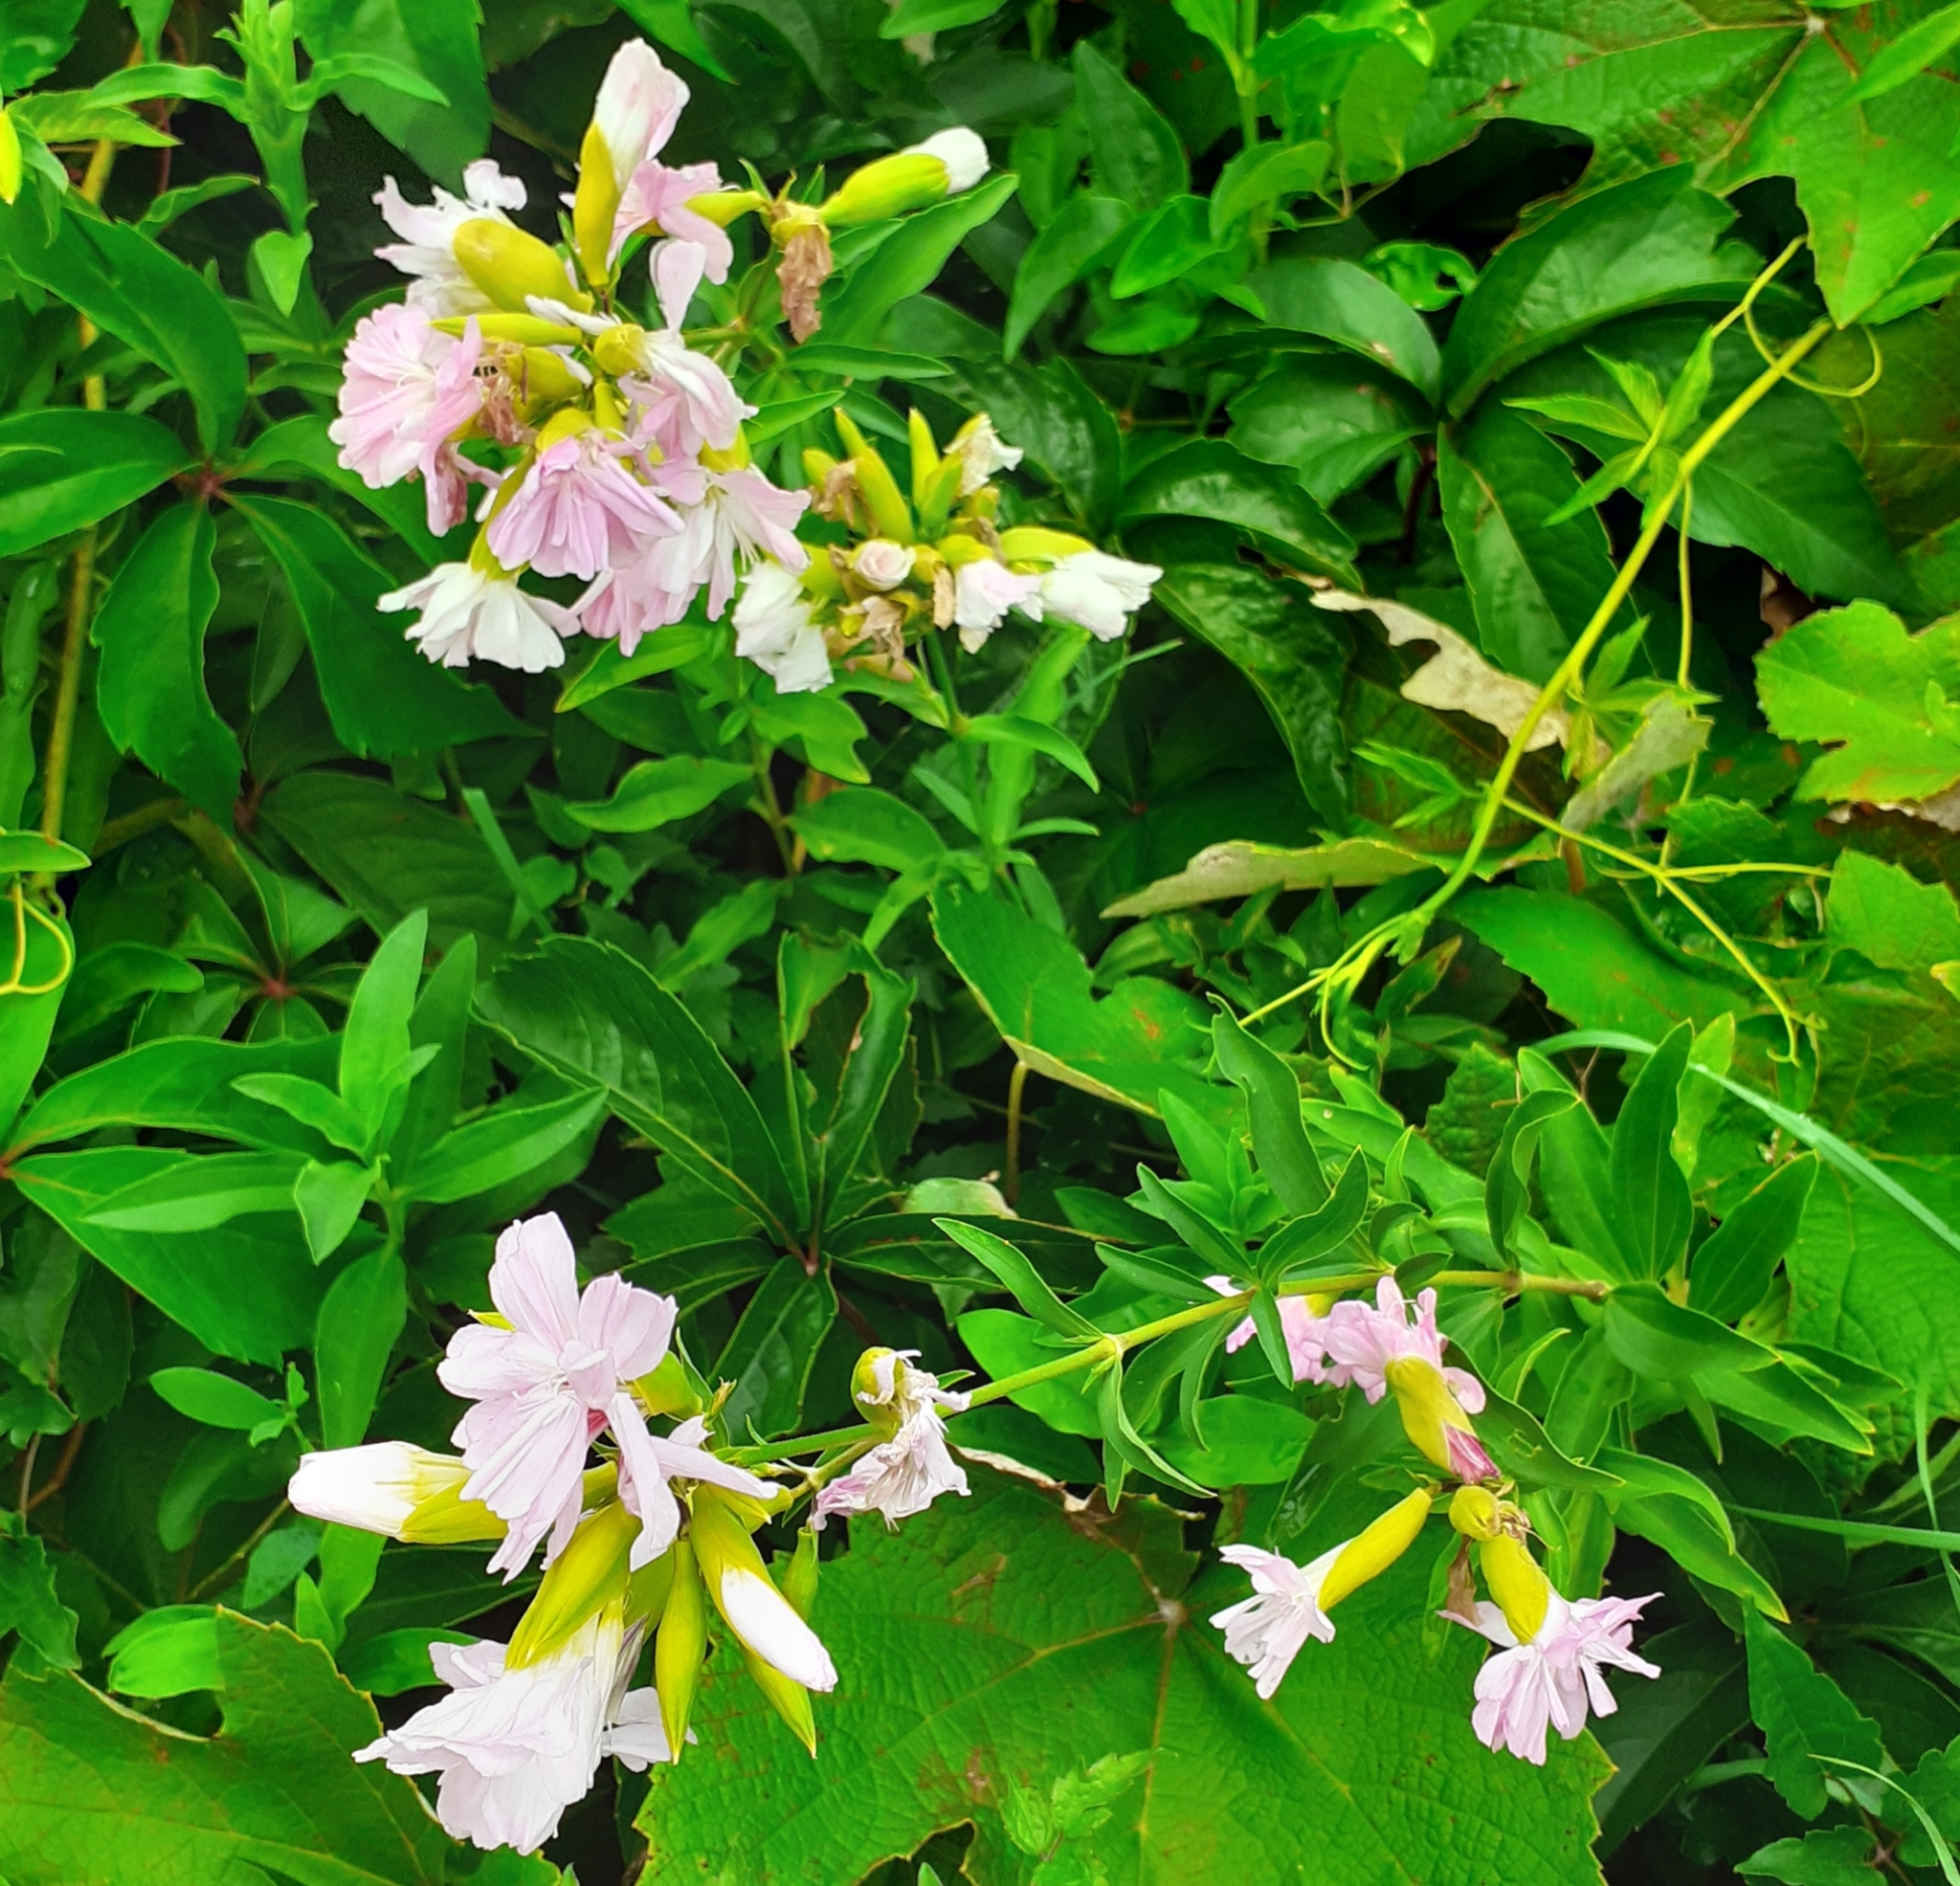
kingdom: Plantae
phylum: Tracheophyta
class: Magnoliopsida
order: Caryophyllales
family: Caryophyllaceae
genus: Saponaria
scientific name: Saponaria officinalis
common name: Soapwort
